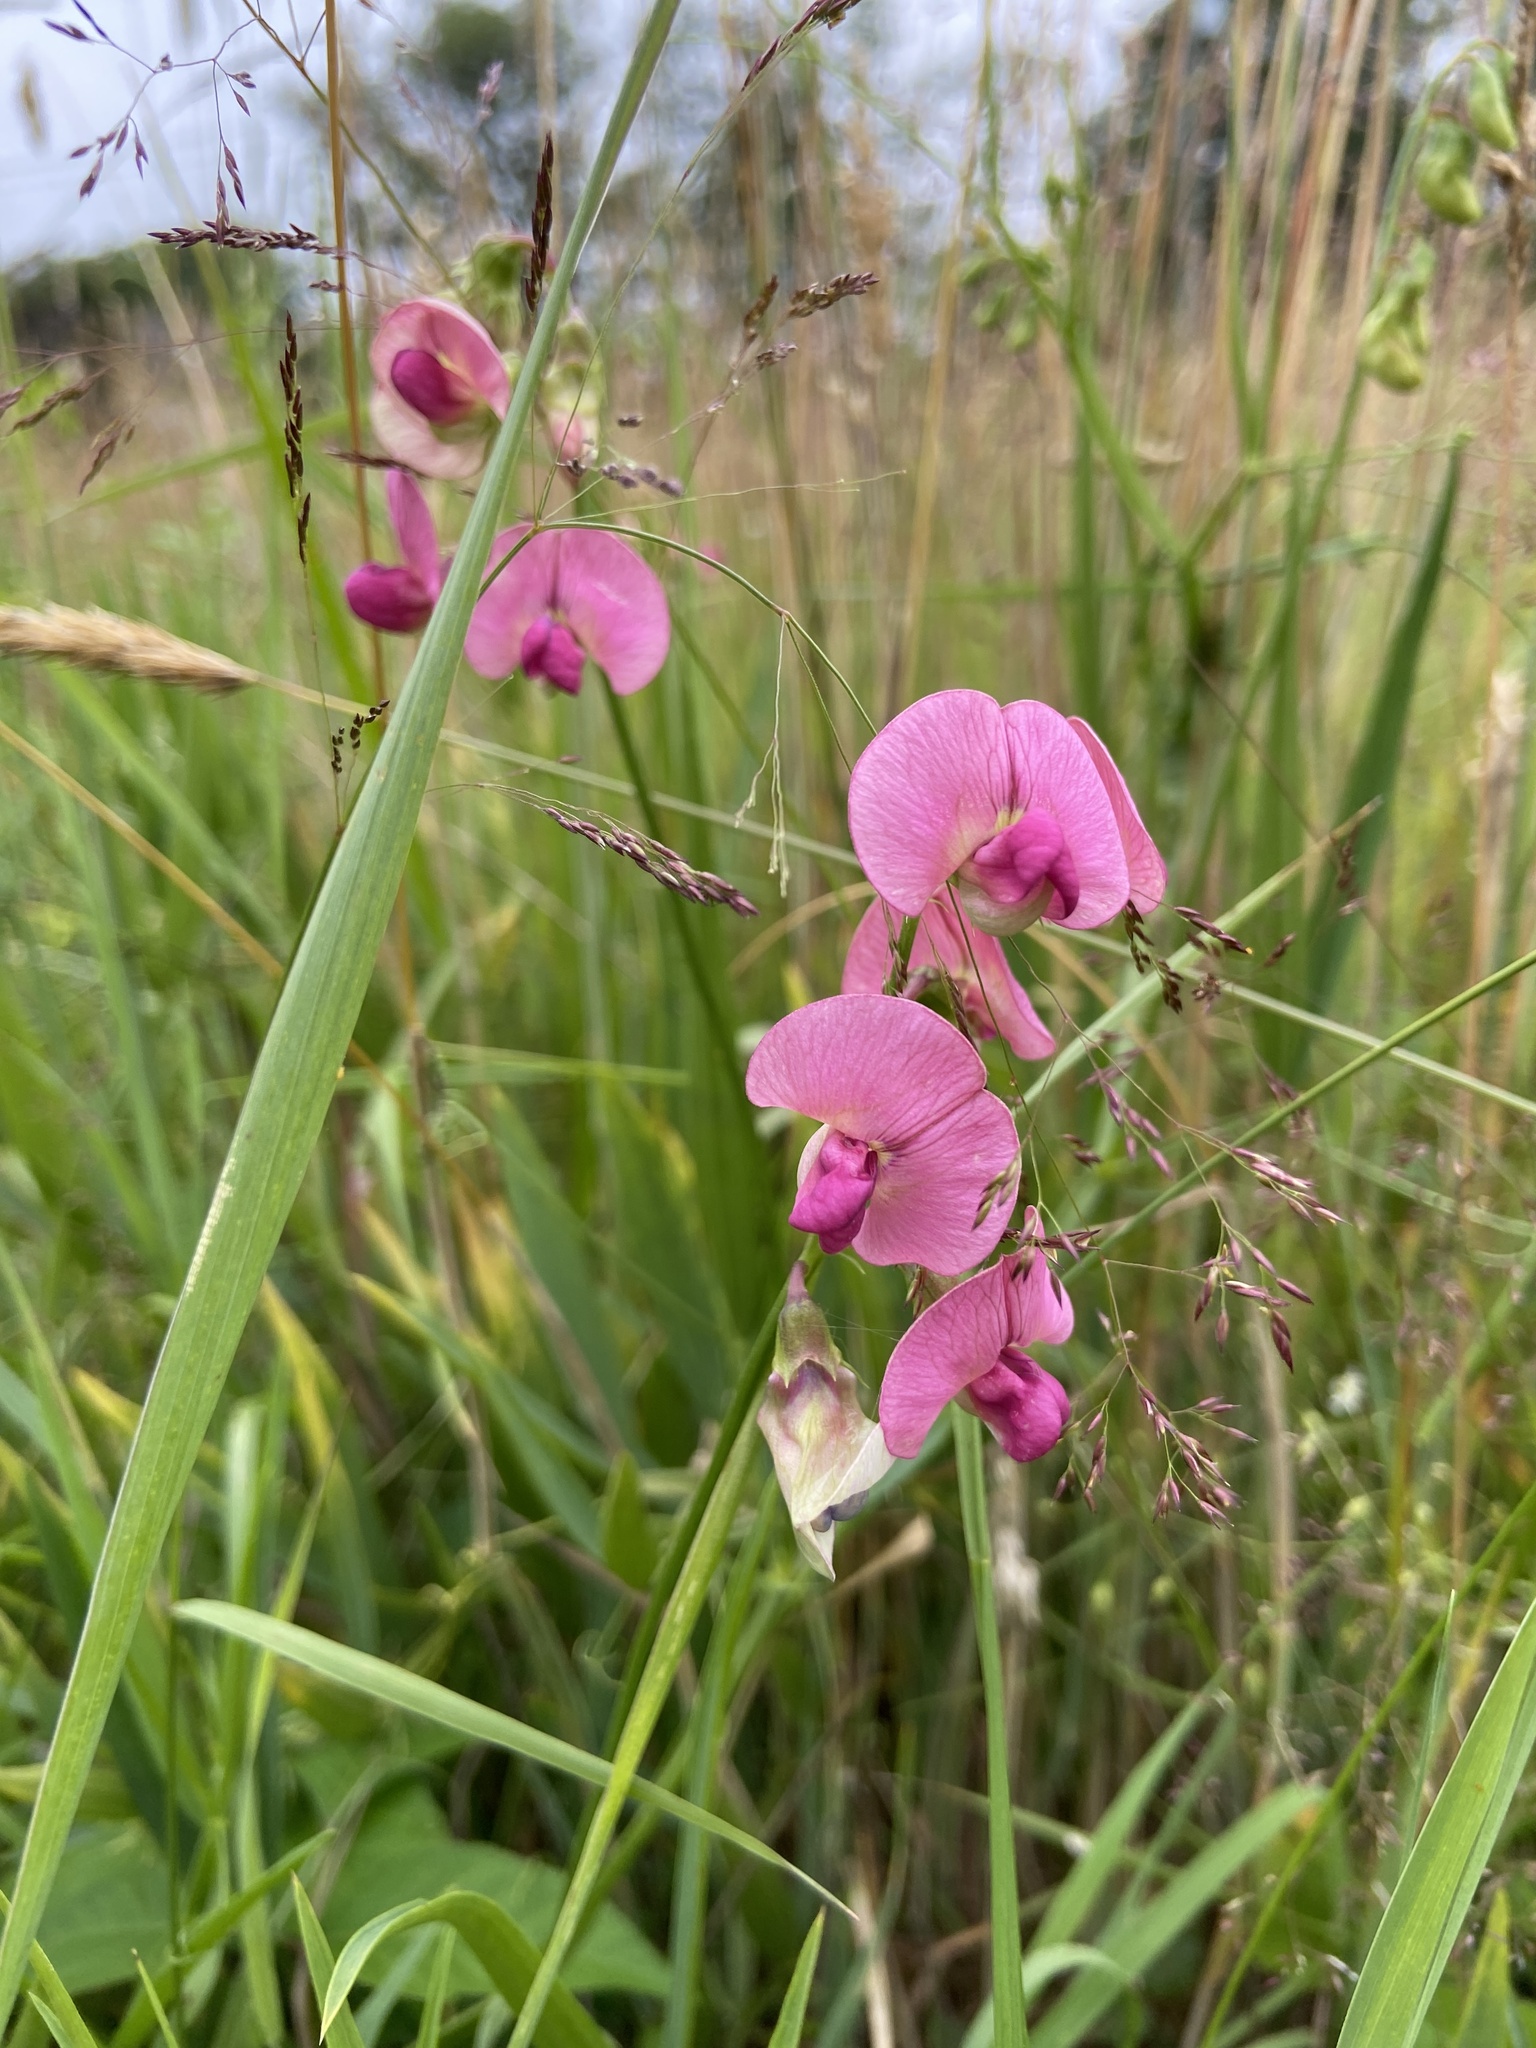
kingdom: Plantae
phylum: Tracheophyta
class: Magnoliopsida
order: Fabales
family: Fabaceae
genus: Lathyrus
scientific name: Lathyrus sylvestris
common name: Flat pea
